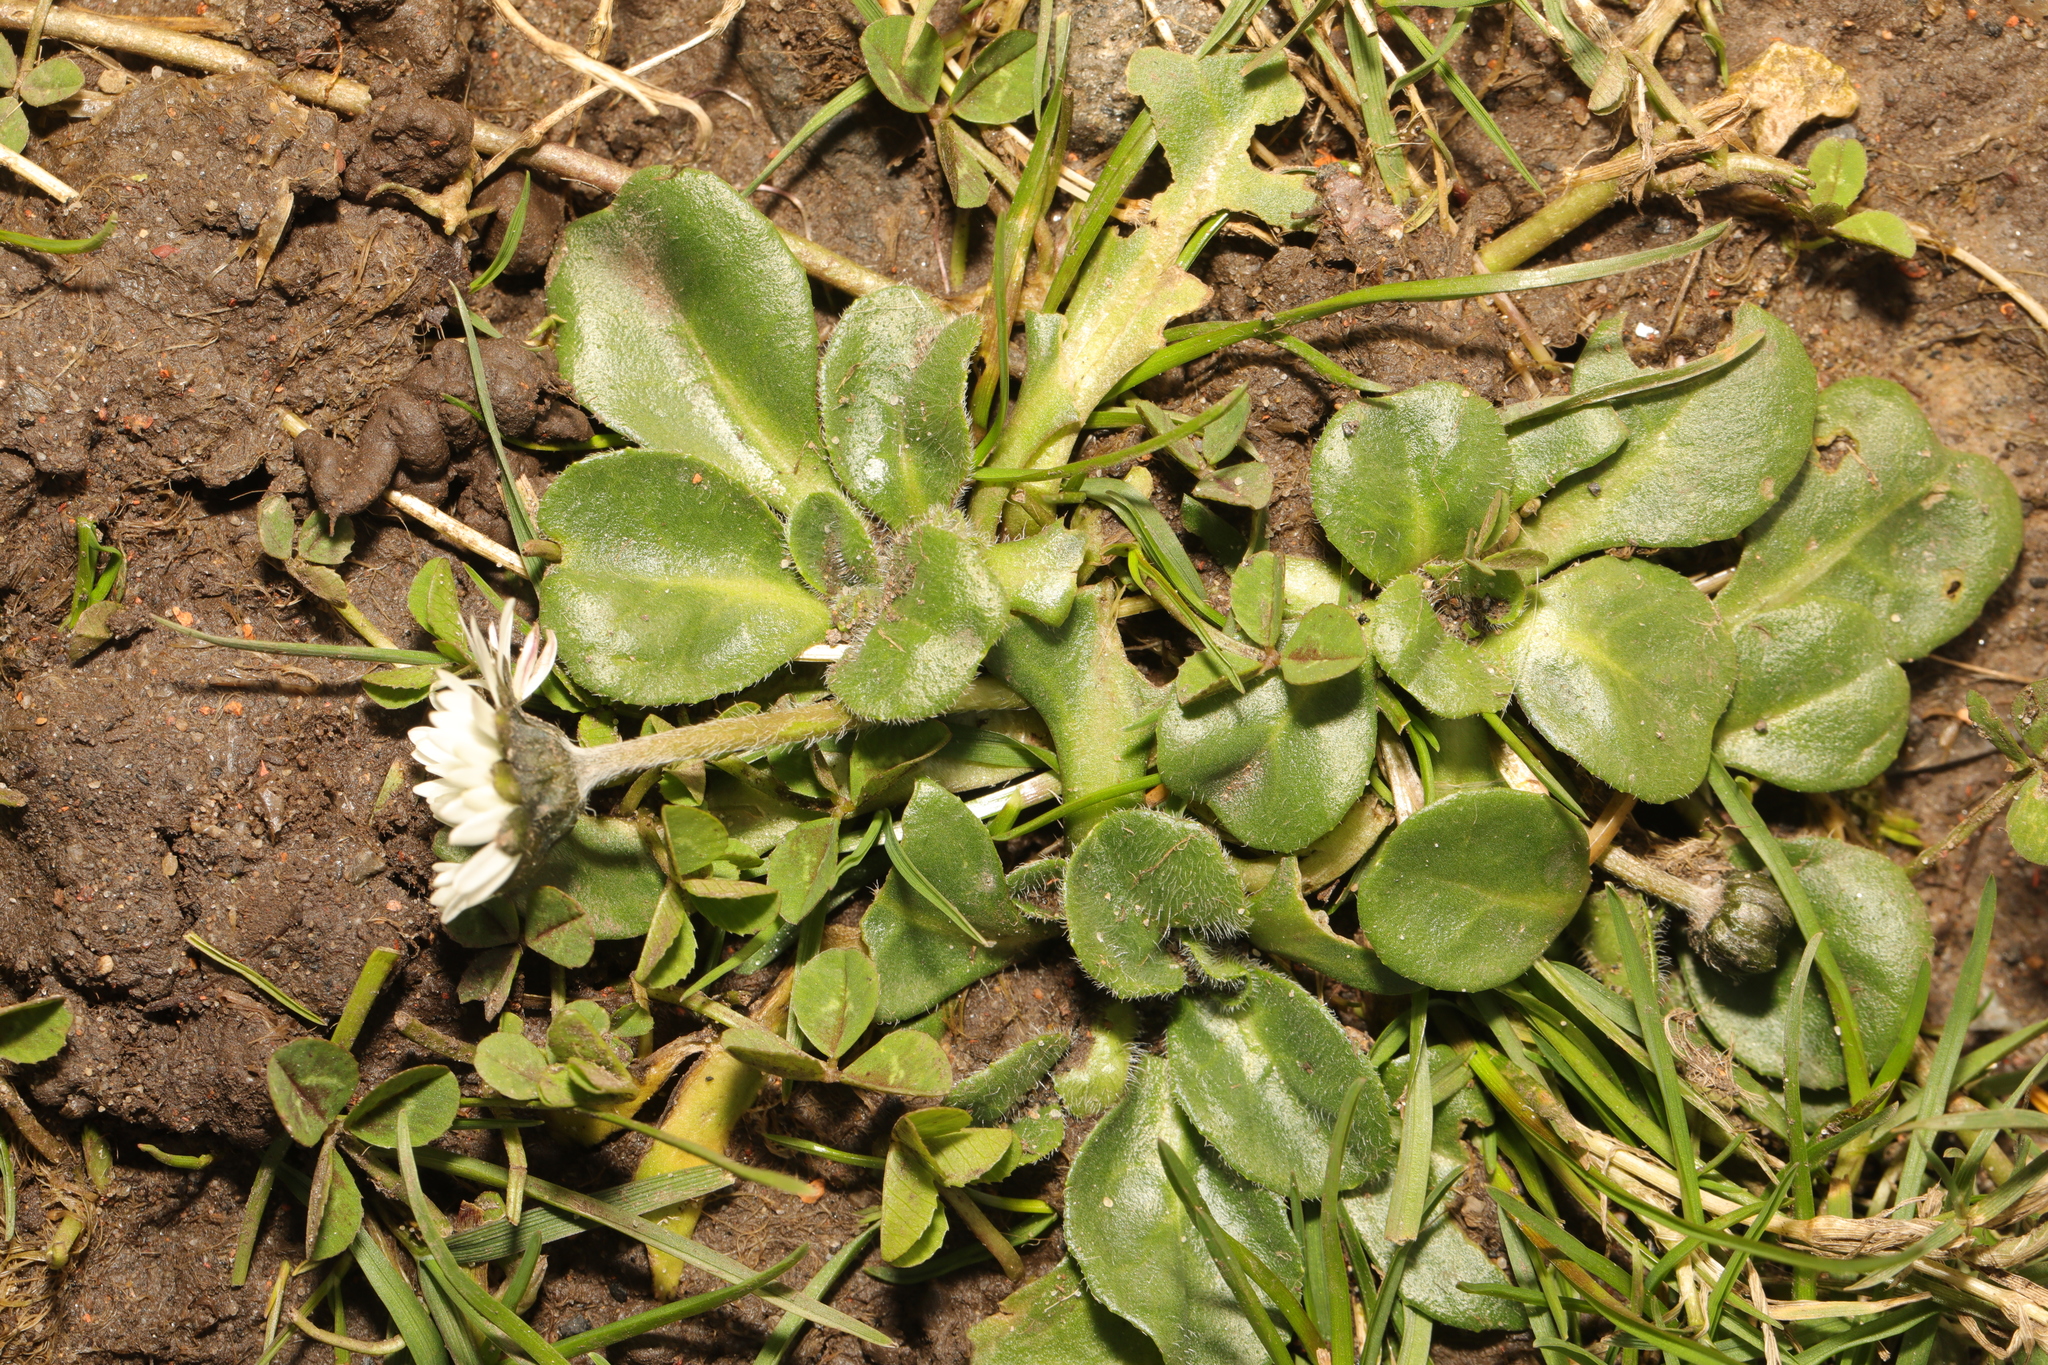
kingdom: Plantae
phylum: Tracheophyta
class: Magnoliopsida
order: Asterales
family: Asteraceae
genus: Bellis
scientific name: Bellis perennis
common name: Lawndaisy
